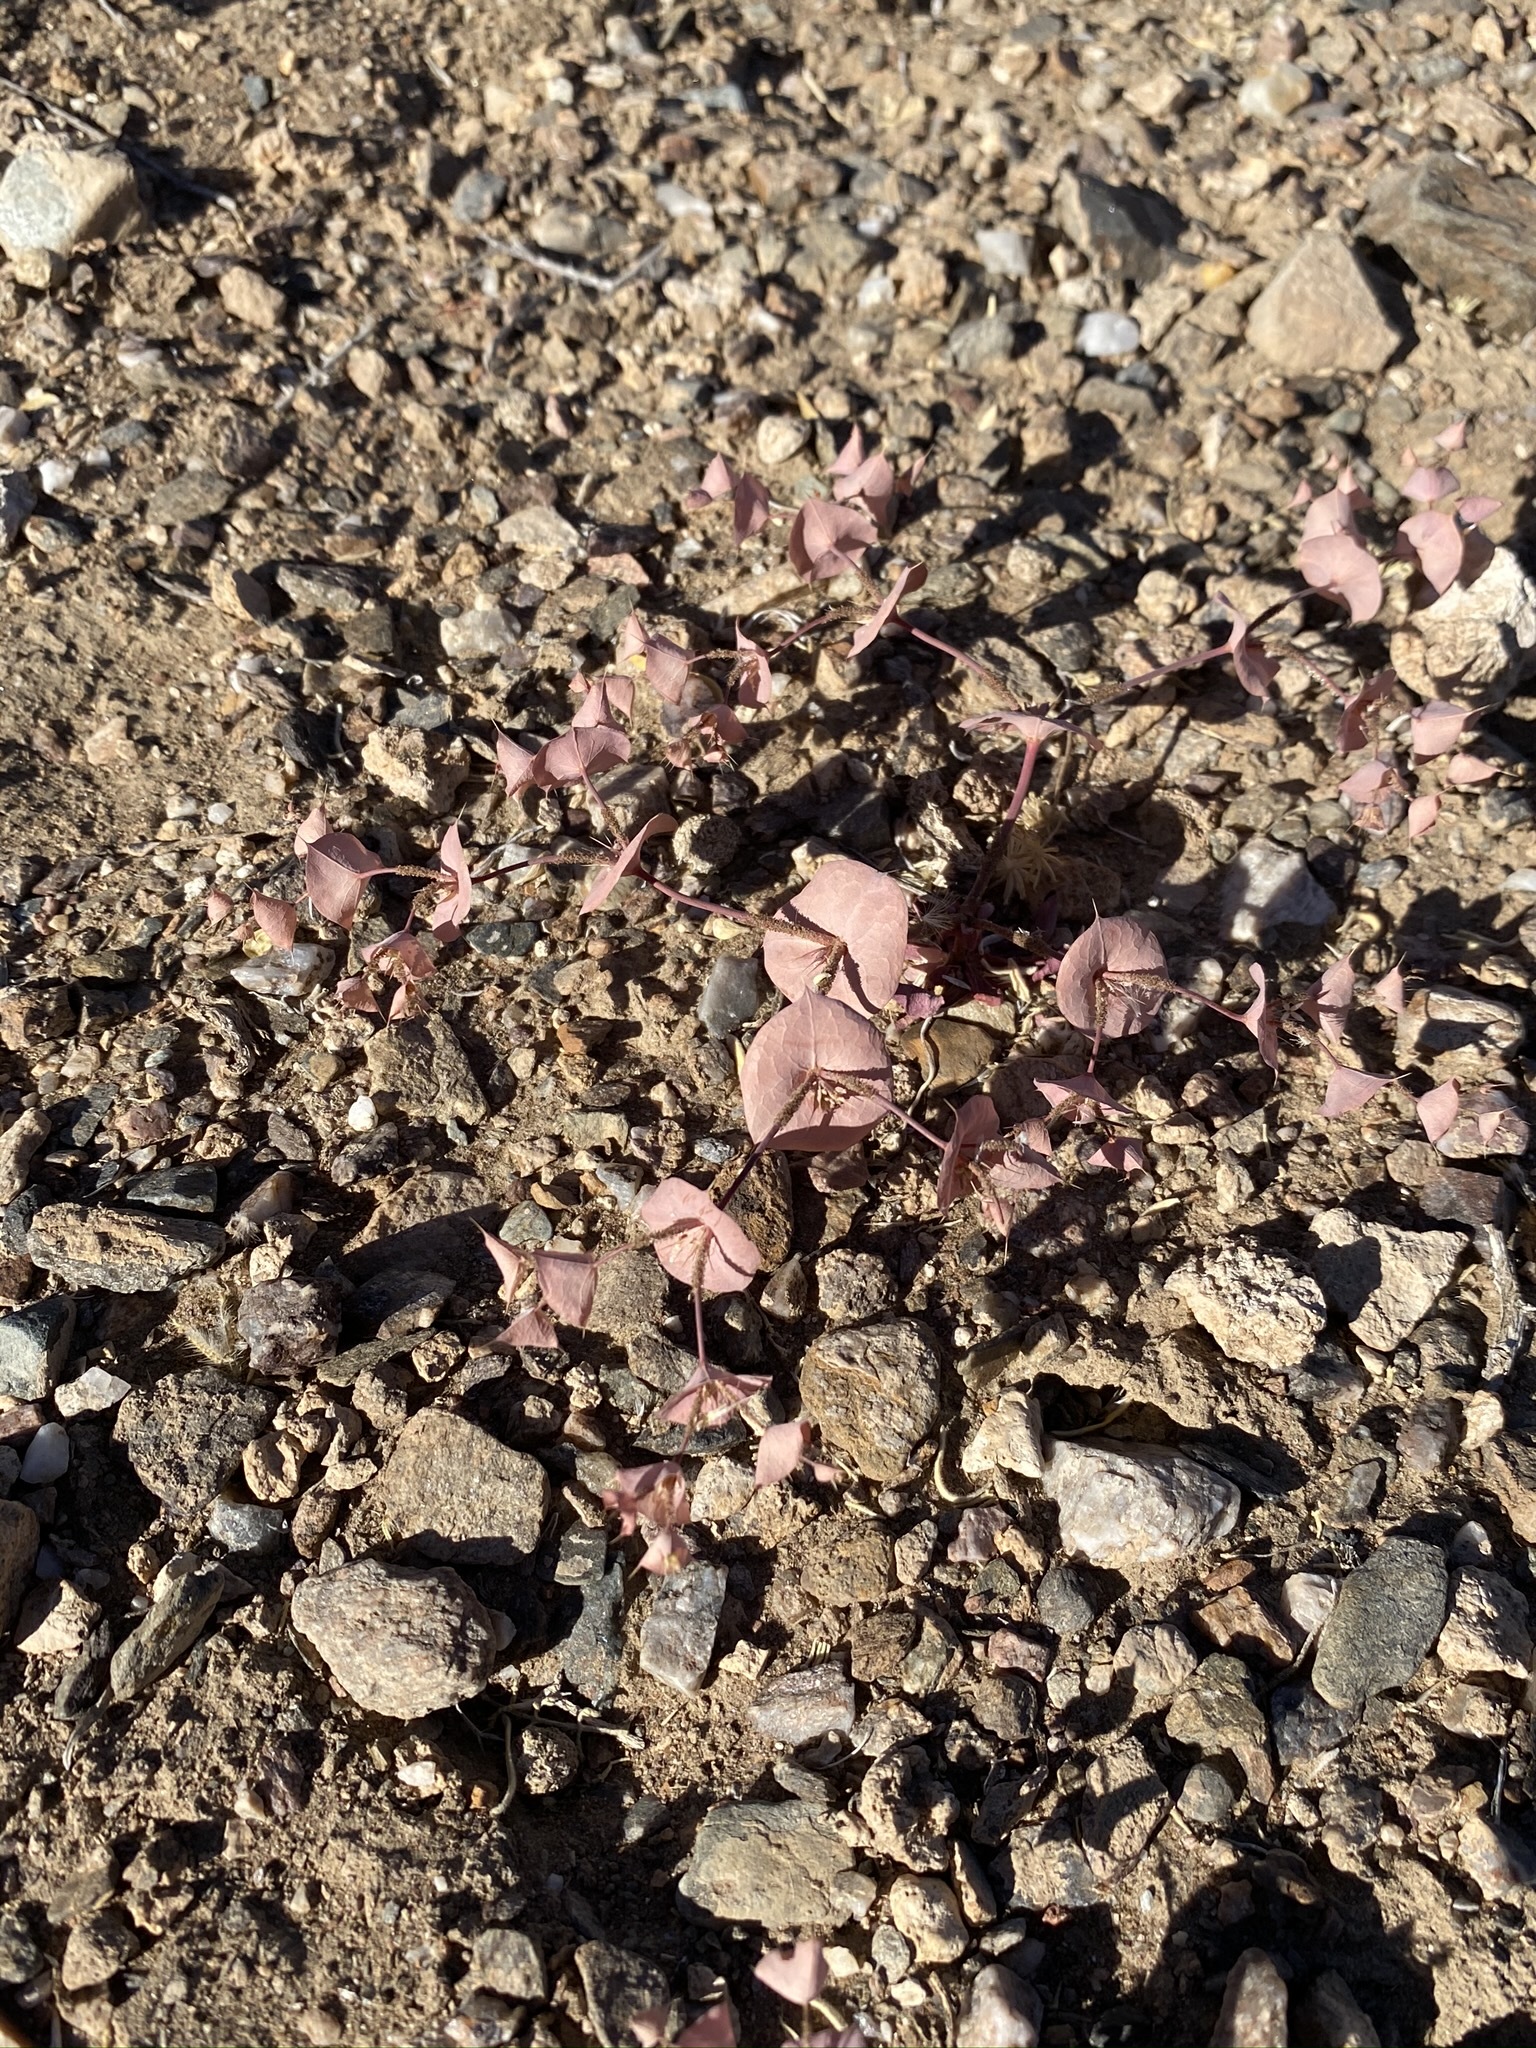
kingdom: Plantae
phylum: Tracheophyta
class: Magnoliopsida
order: Caryophyllales
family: Polygonaceae
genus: Oxytheca
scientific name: Oxytheca perfoliata
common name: Round-leaf puncturebract
